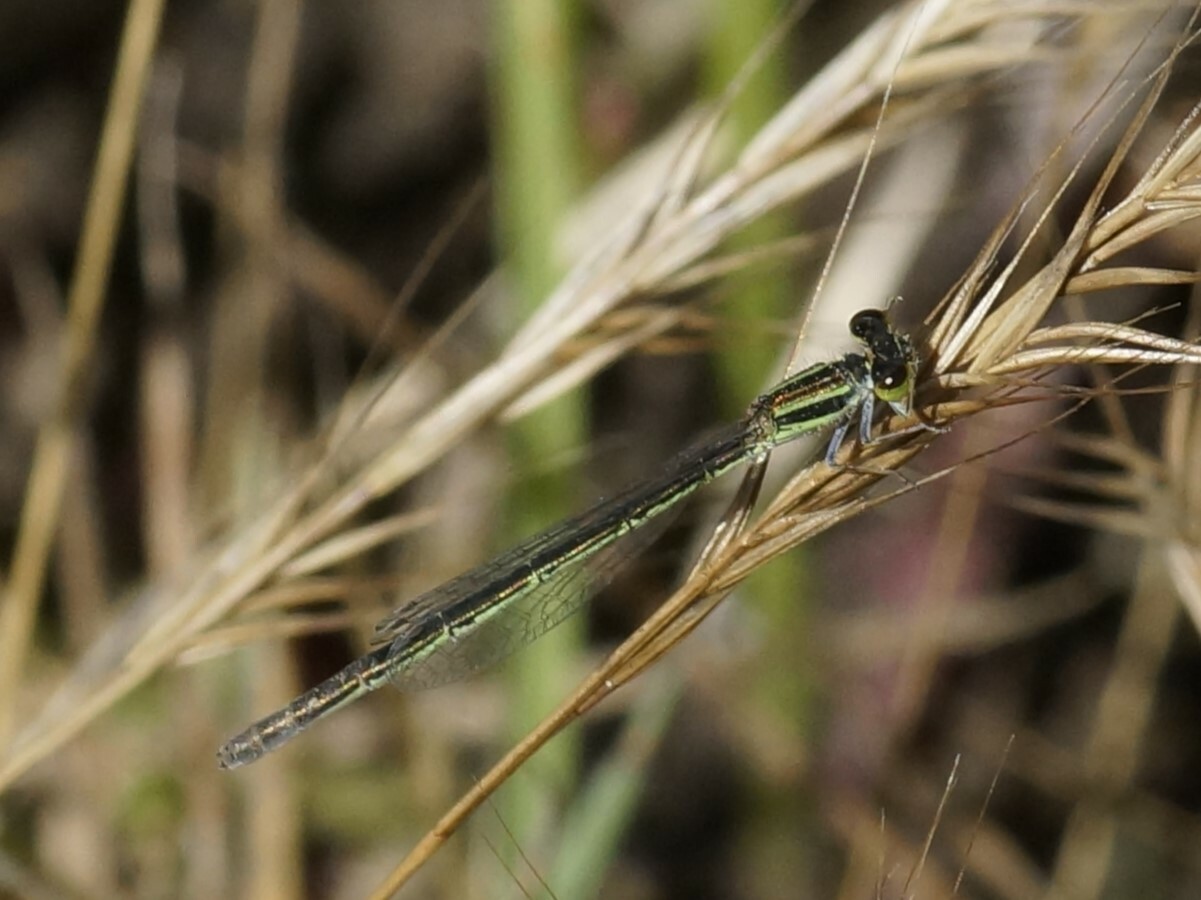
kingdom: Animalia
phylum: Arthropoda
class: Insecta
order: Odonata
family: Coenagrionidae
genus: Ischnura
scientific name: Ischnura aurora
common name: Gossamer damselfly
